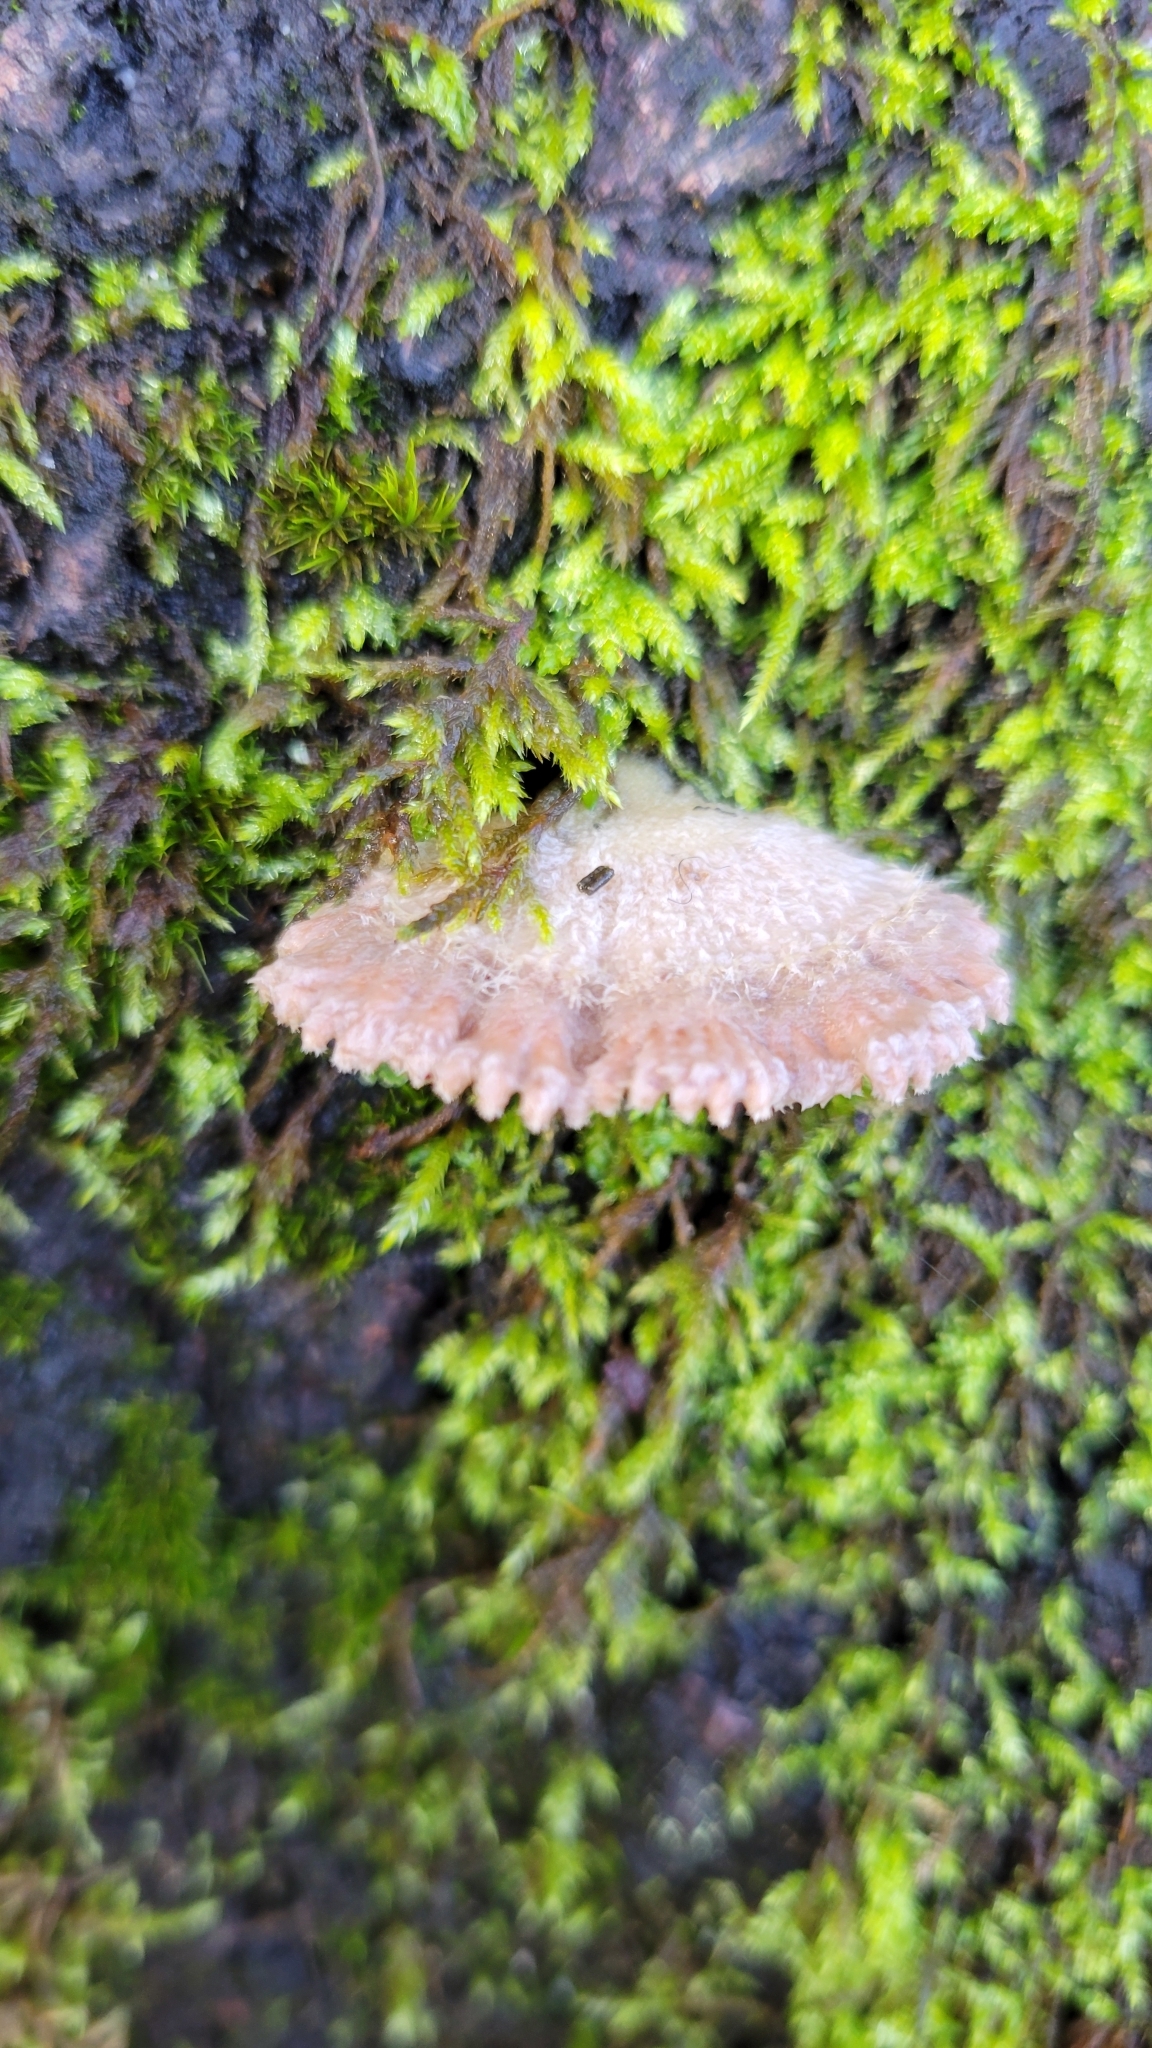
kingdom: Fungi
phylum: Basidiomycota
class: Agaricomycetes
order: Agaricales
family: Schizophyllaceae
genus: Schizophyllum
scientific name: Schizophyllum commune
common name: Common porecrust
